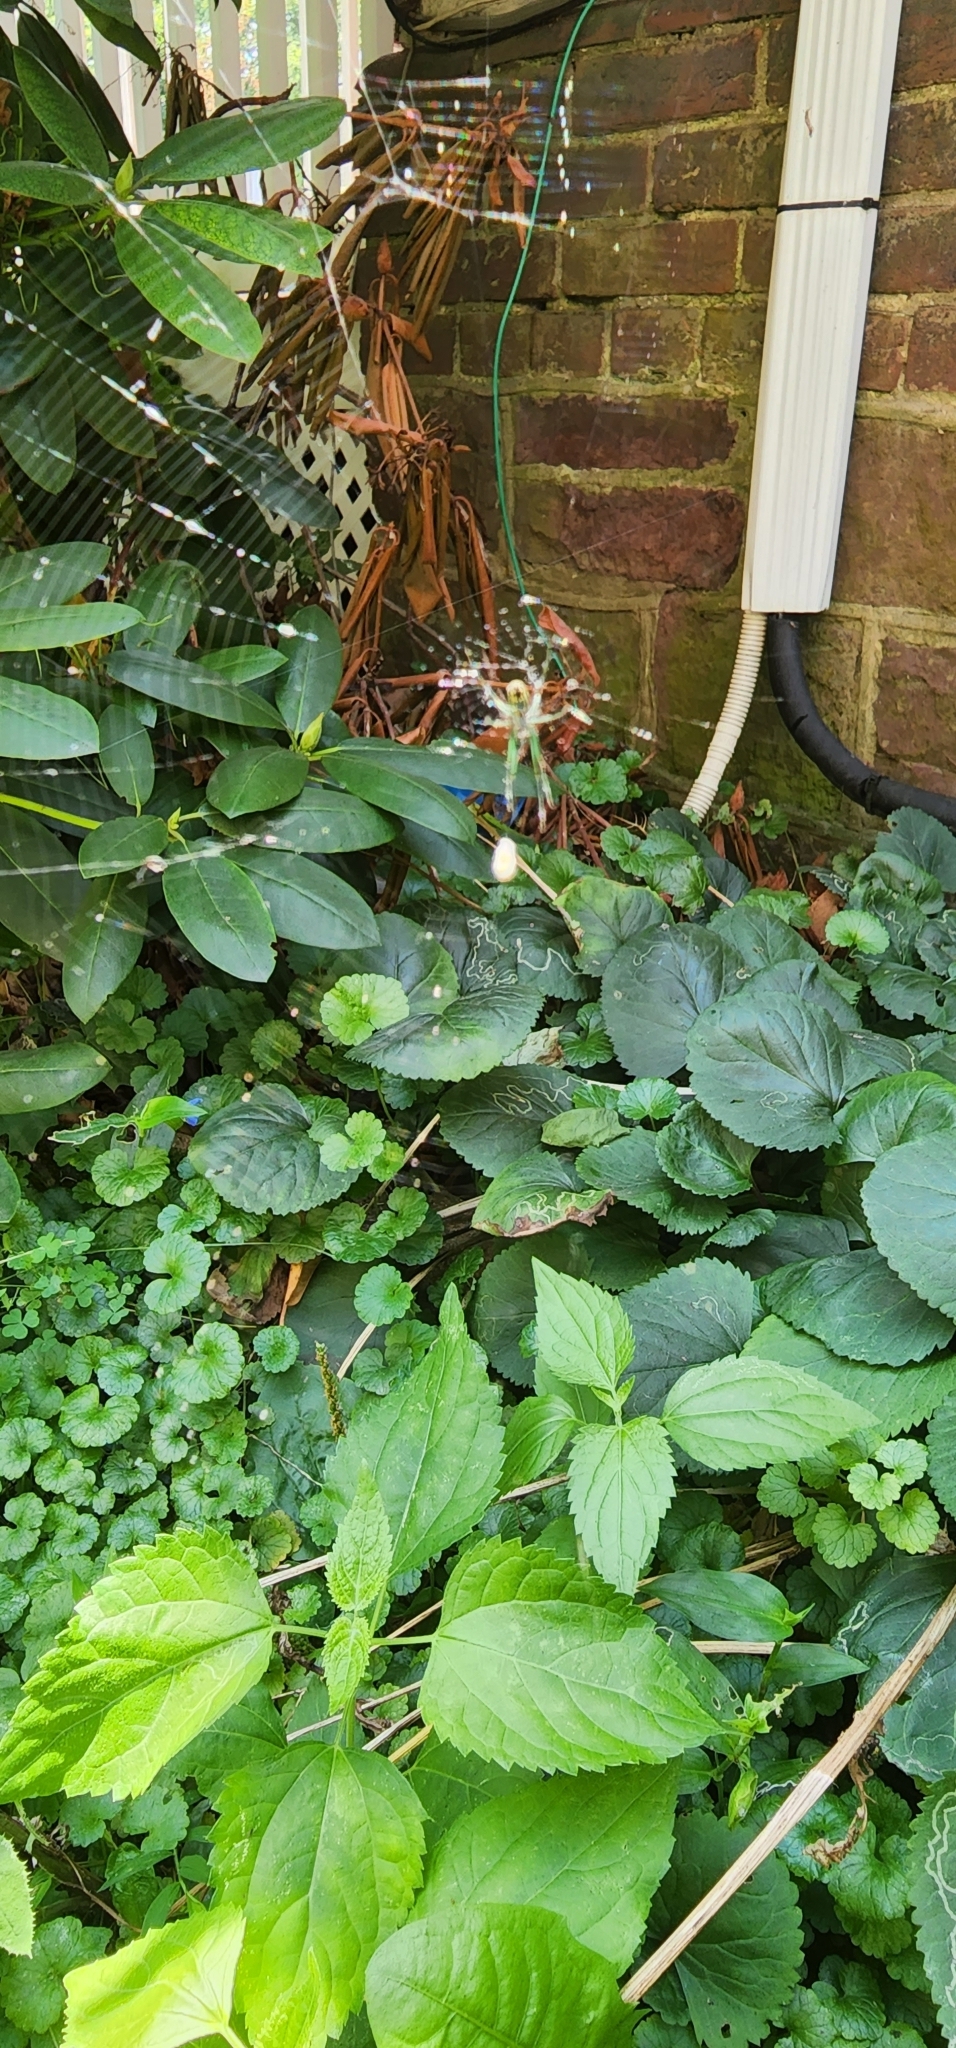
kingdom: Animalia
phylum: Arthropoda
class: Arachnida
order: Araneae
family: Tetragnathidae
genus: Leucauge
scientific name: Leucauge venusta
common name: Longjawed orb weavers
